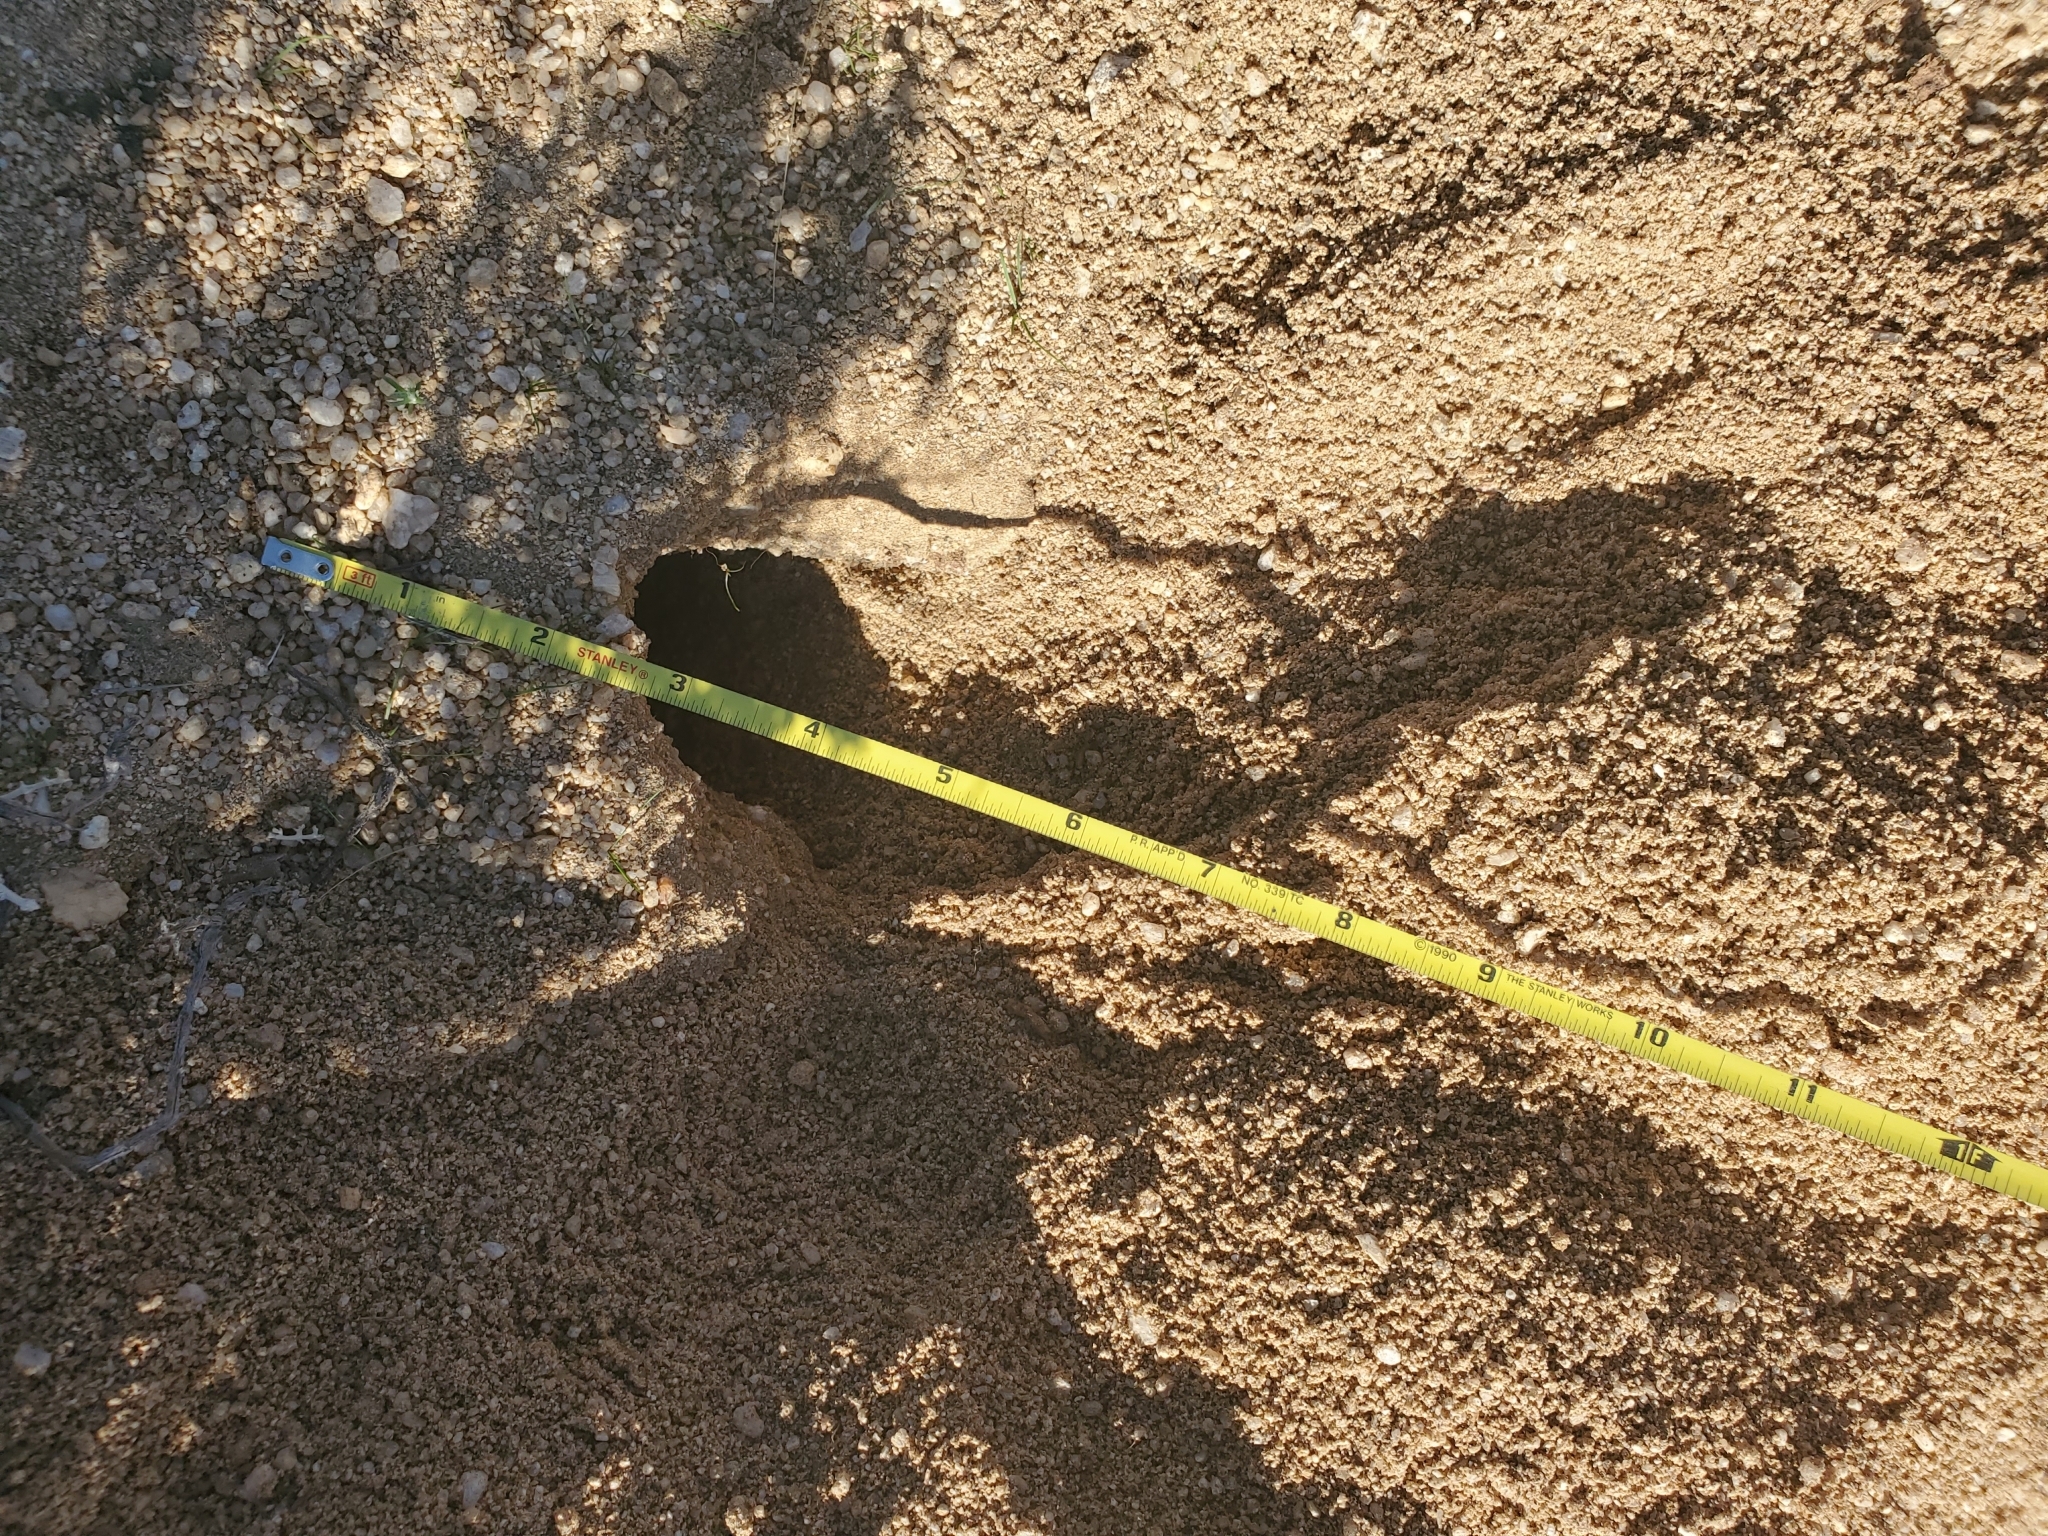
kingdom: Animalia
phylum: Chordata
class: Mammalia
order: Rodentia
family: Geomyidae
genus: Thomomys
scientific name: Thomomys bottae
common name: Botta's pocket gopher
